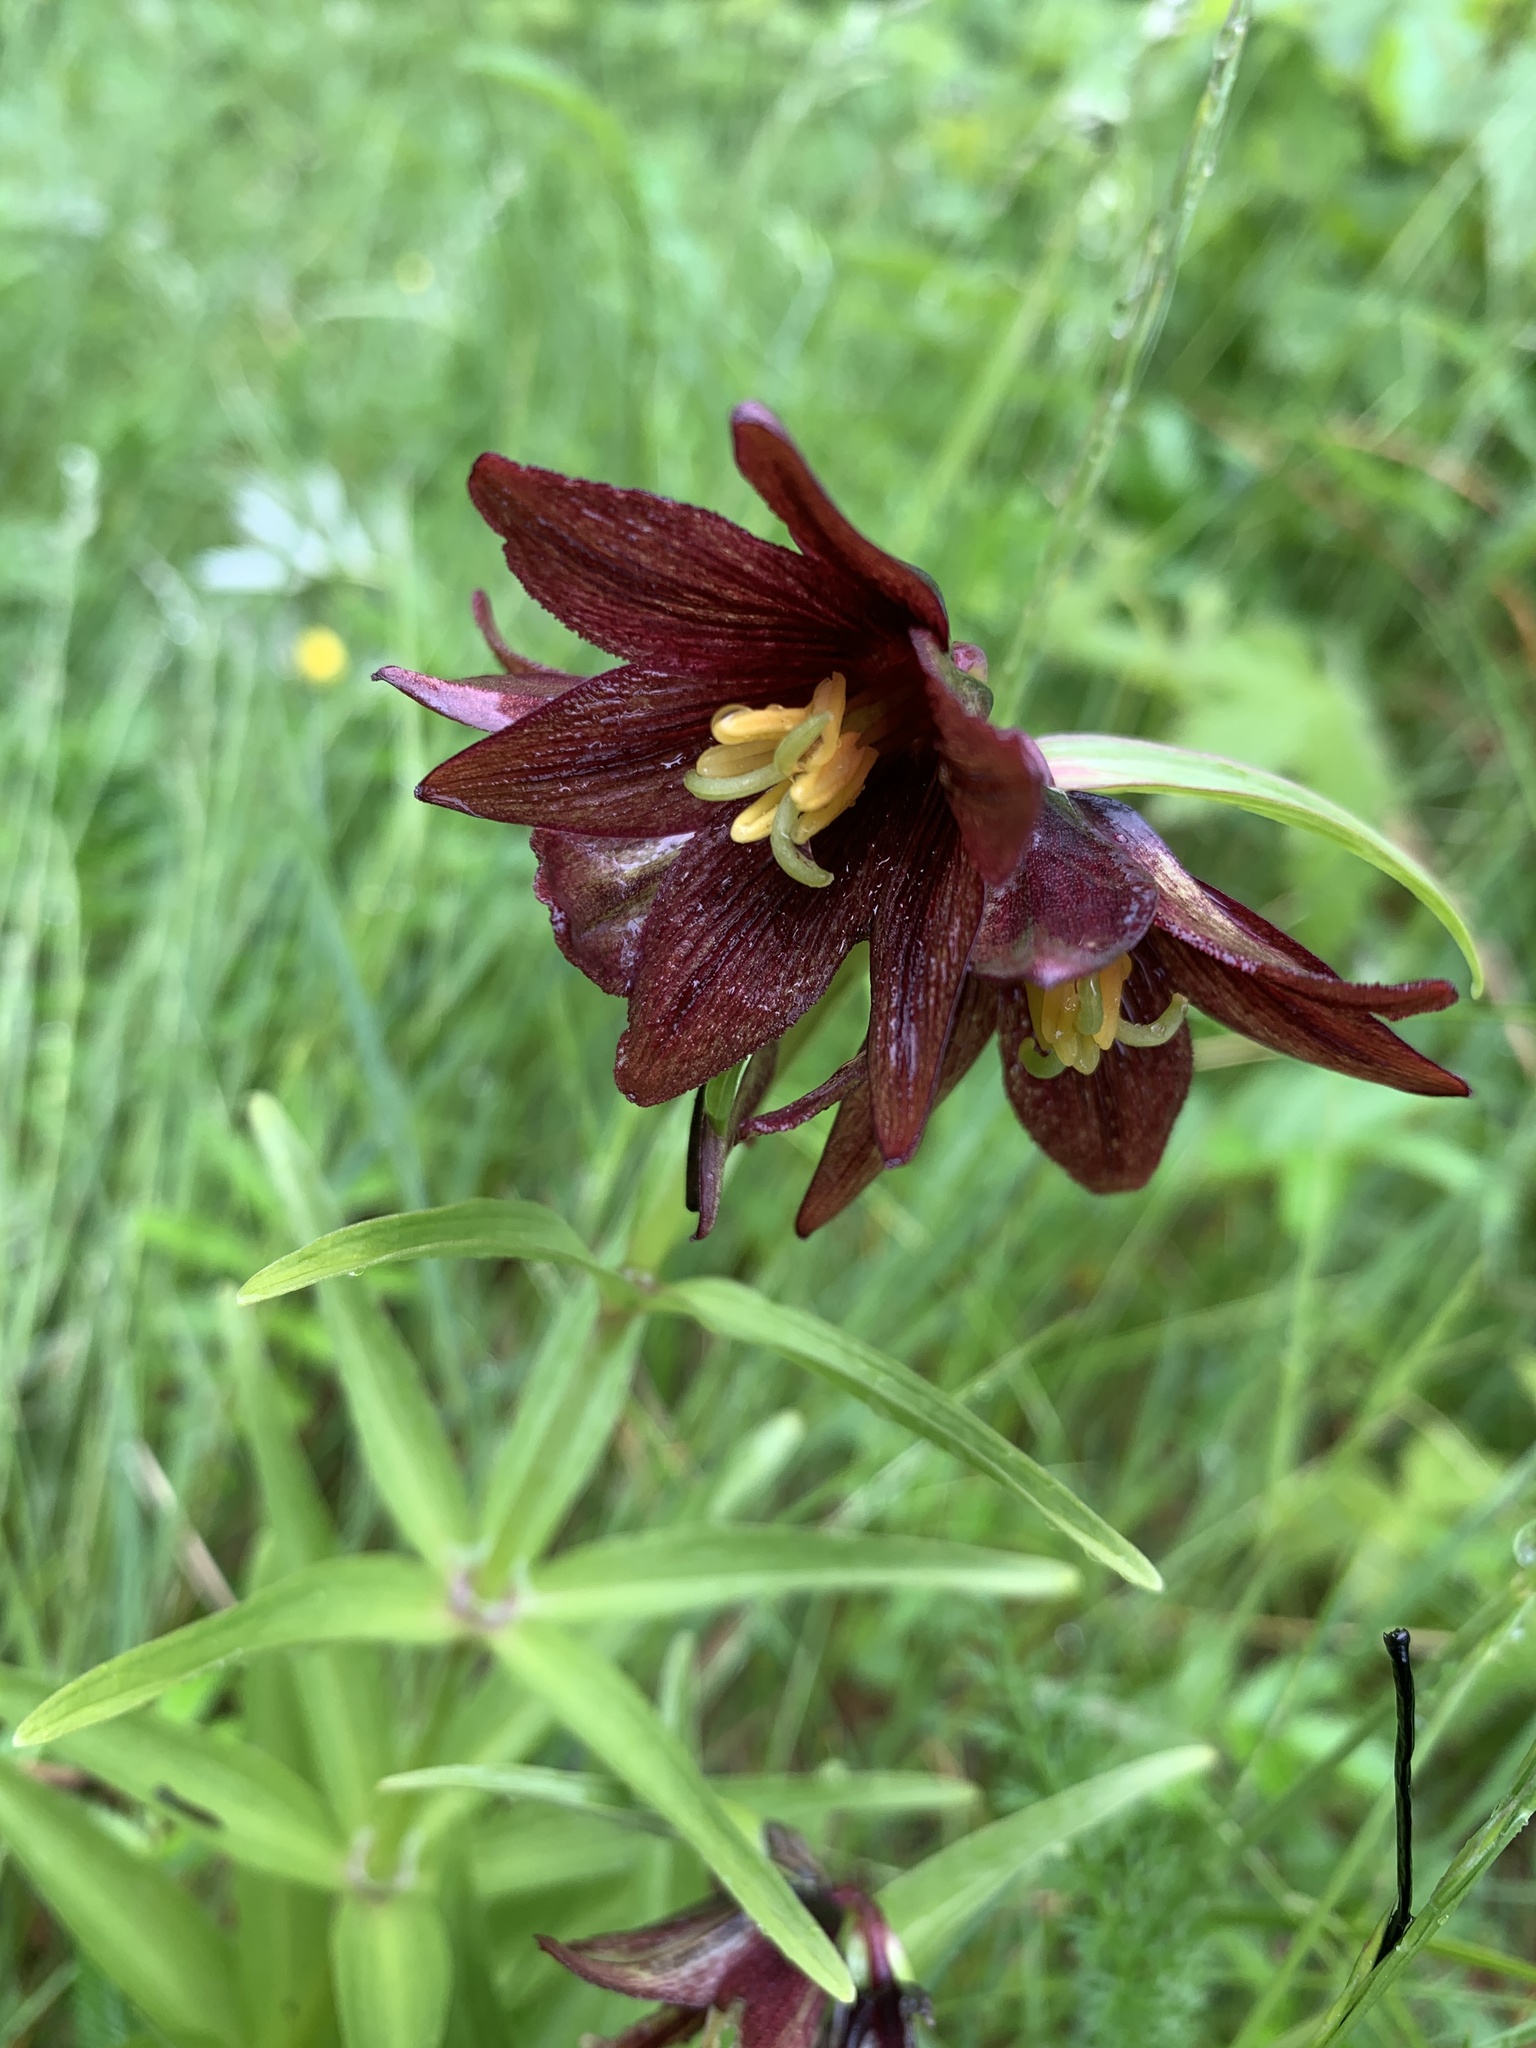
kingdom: Plantae
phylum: Tracheophyta
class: Liliopsida
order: Liliales
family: Liliaceae
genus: Fritillaria
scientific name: Fritillaria camschatcensis
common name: Kamchatka fritillary
